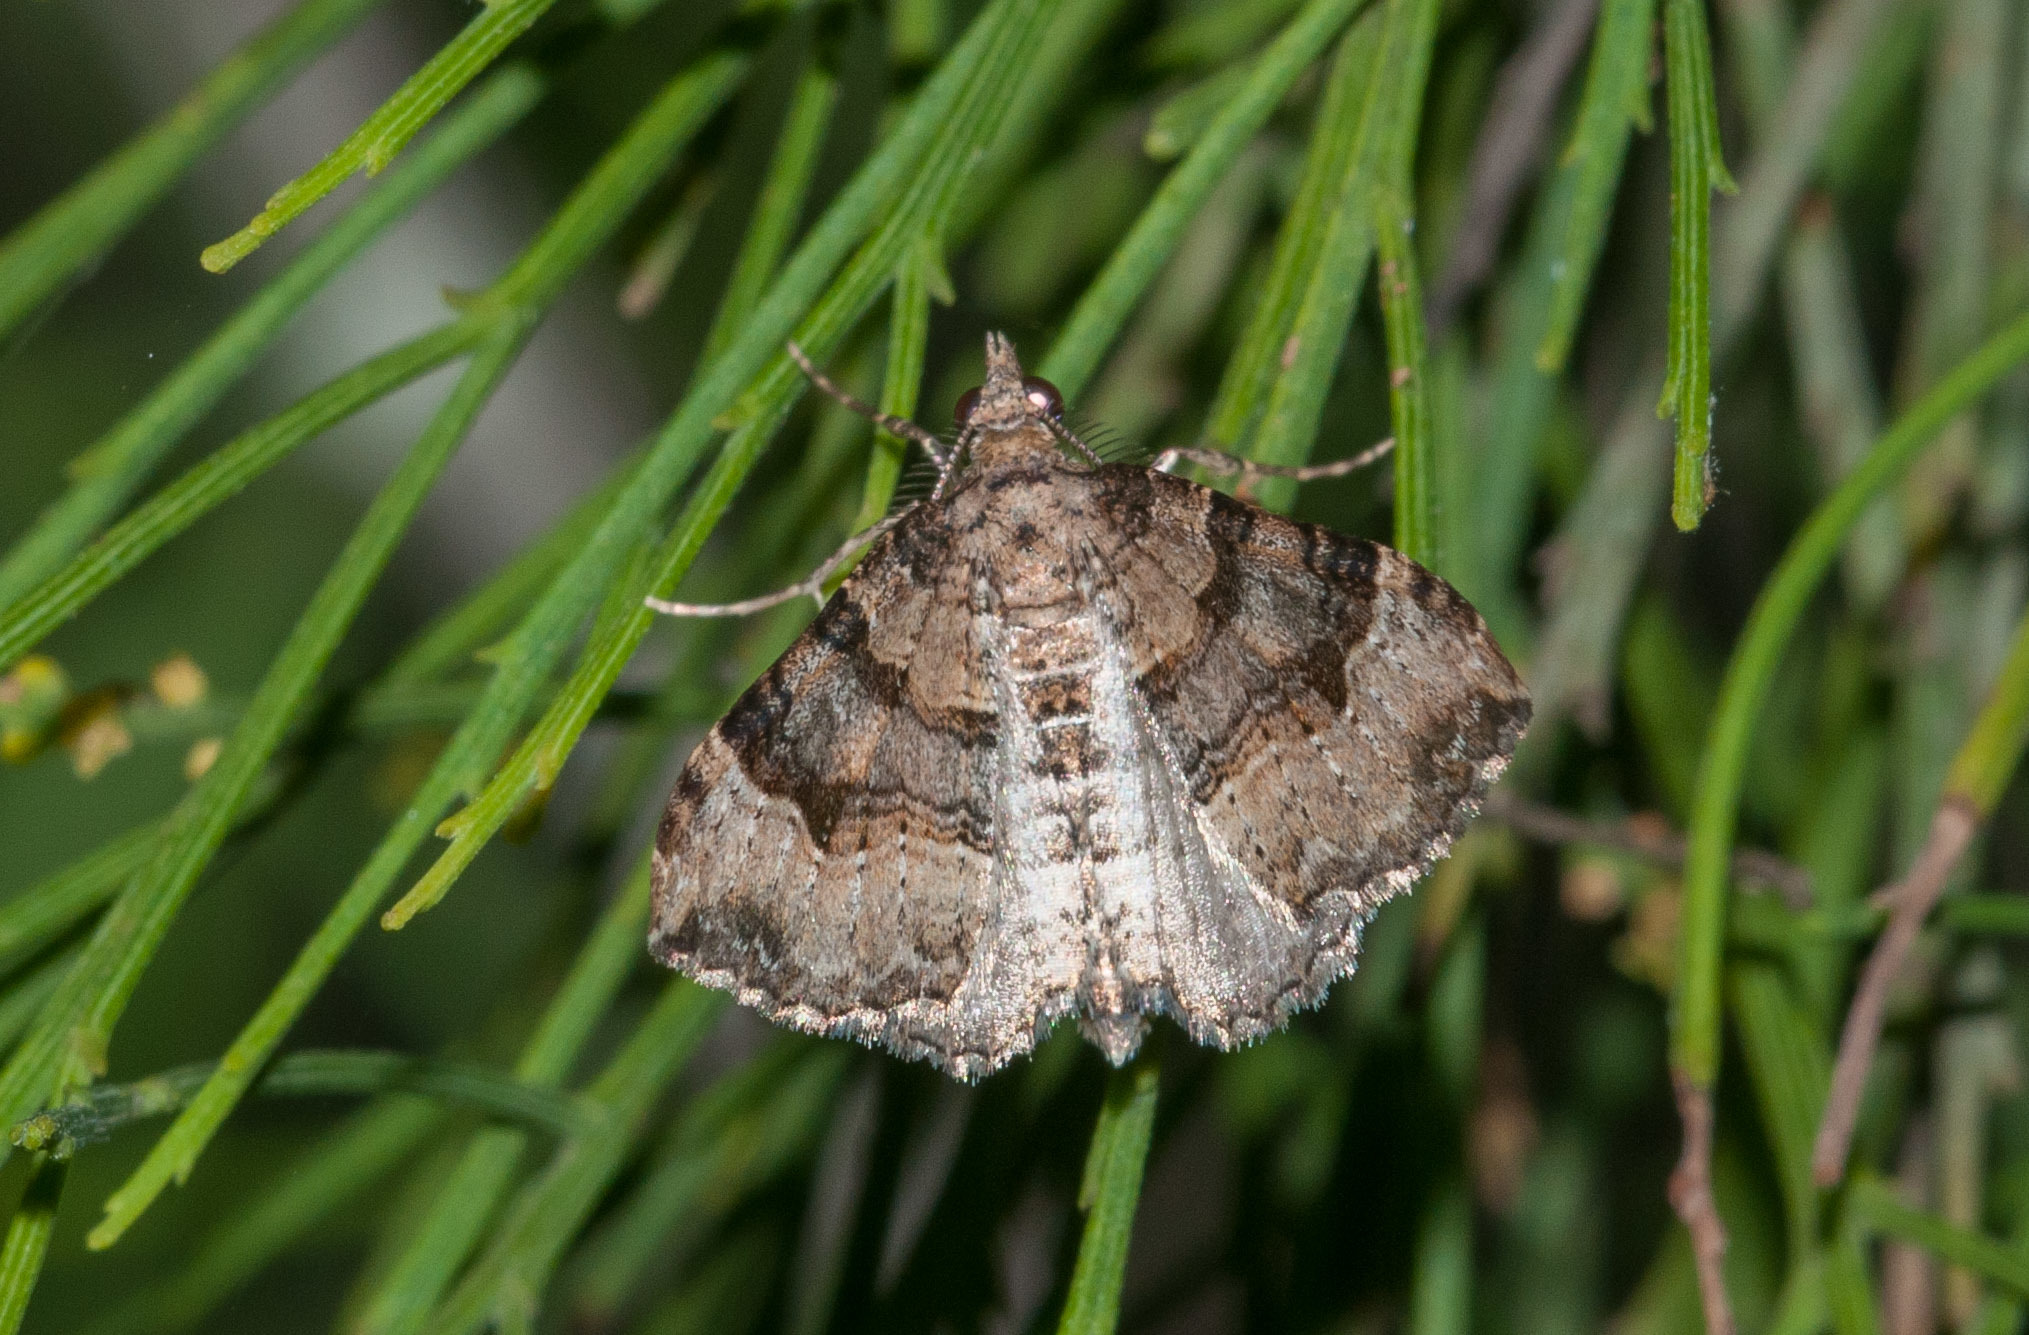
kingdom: Animalia
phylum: Arthropoda
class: Insecta
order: Lepidoptera
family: Geometridae
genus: Epyaxa
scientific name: Epyaxa subidaria
